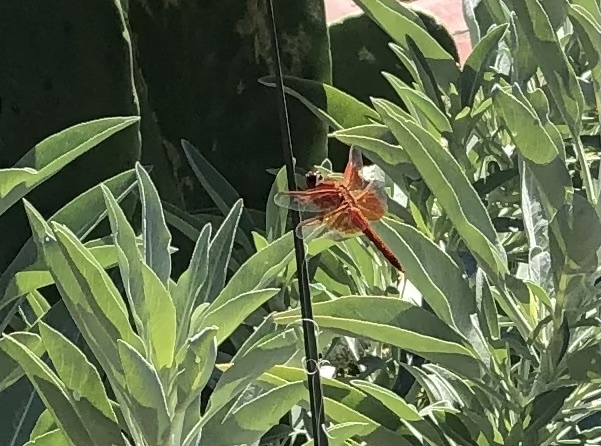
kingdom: Animalia
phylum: Arthropoda
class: Insecta
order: Odonata
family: Libellulidae
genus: Libellula
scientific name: Libellula saturata
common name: Flame skimmer
